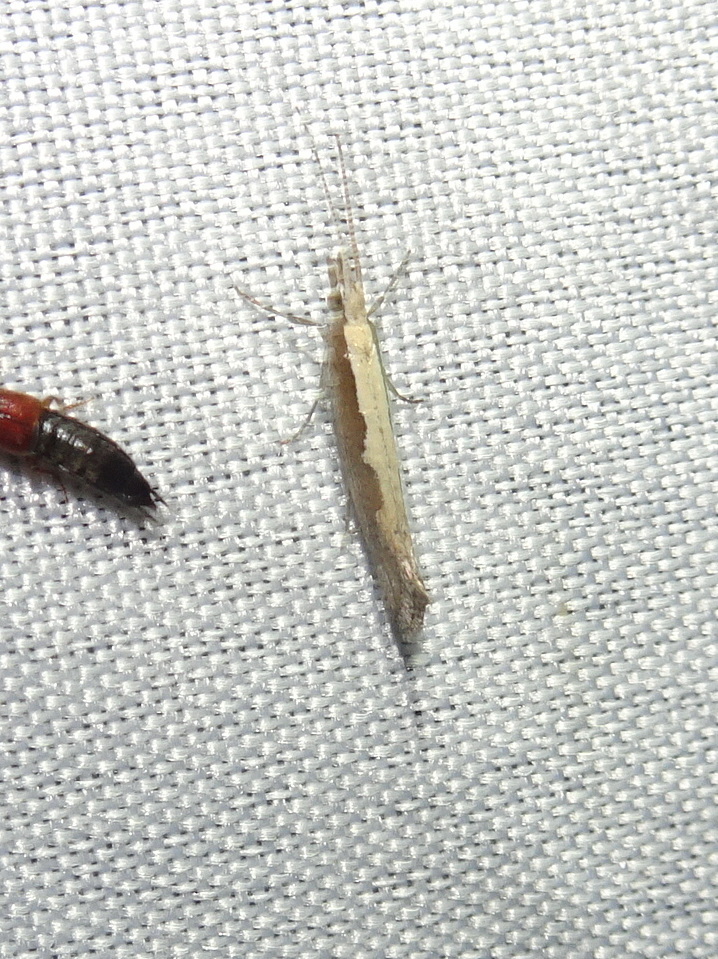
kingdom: Animalia
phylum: Arthropoda
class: Insecta
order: Lepidoptera
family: Plutellidae
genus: Plutella
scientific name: Plutella xylostella
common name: Diamond-back moth
